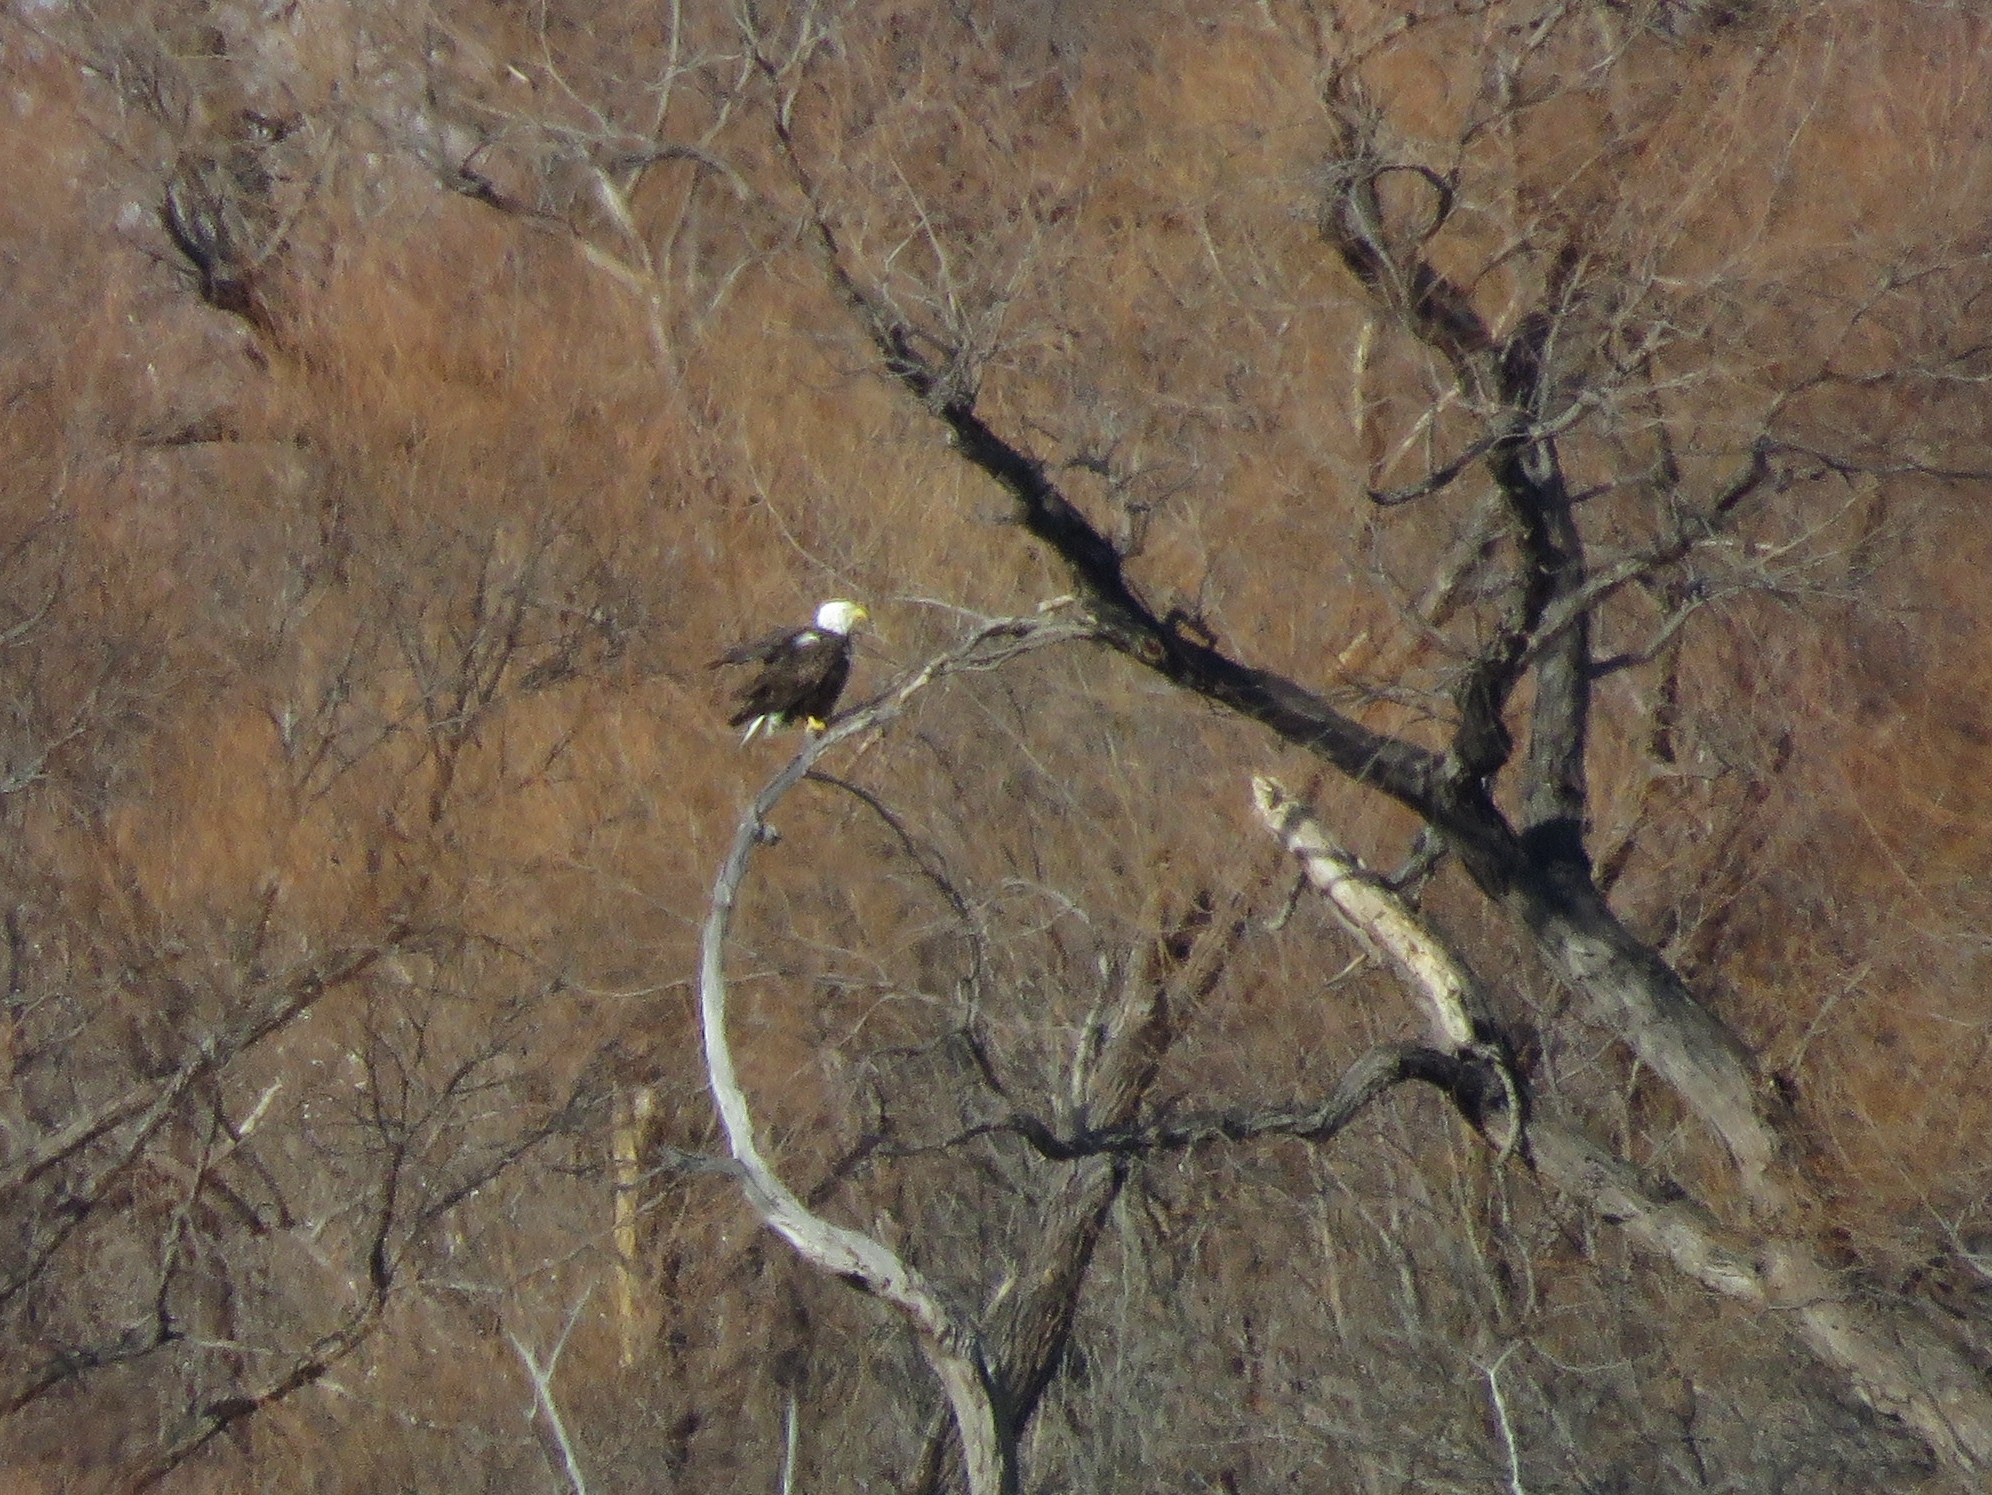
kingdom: Animalia
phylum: Chordata
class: Aves
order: Accipitriformes
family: Accipitridae
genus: Haliaeetus
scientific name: Haliaeetus leucocephalus
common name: Bald eagle
